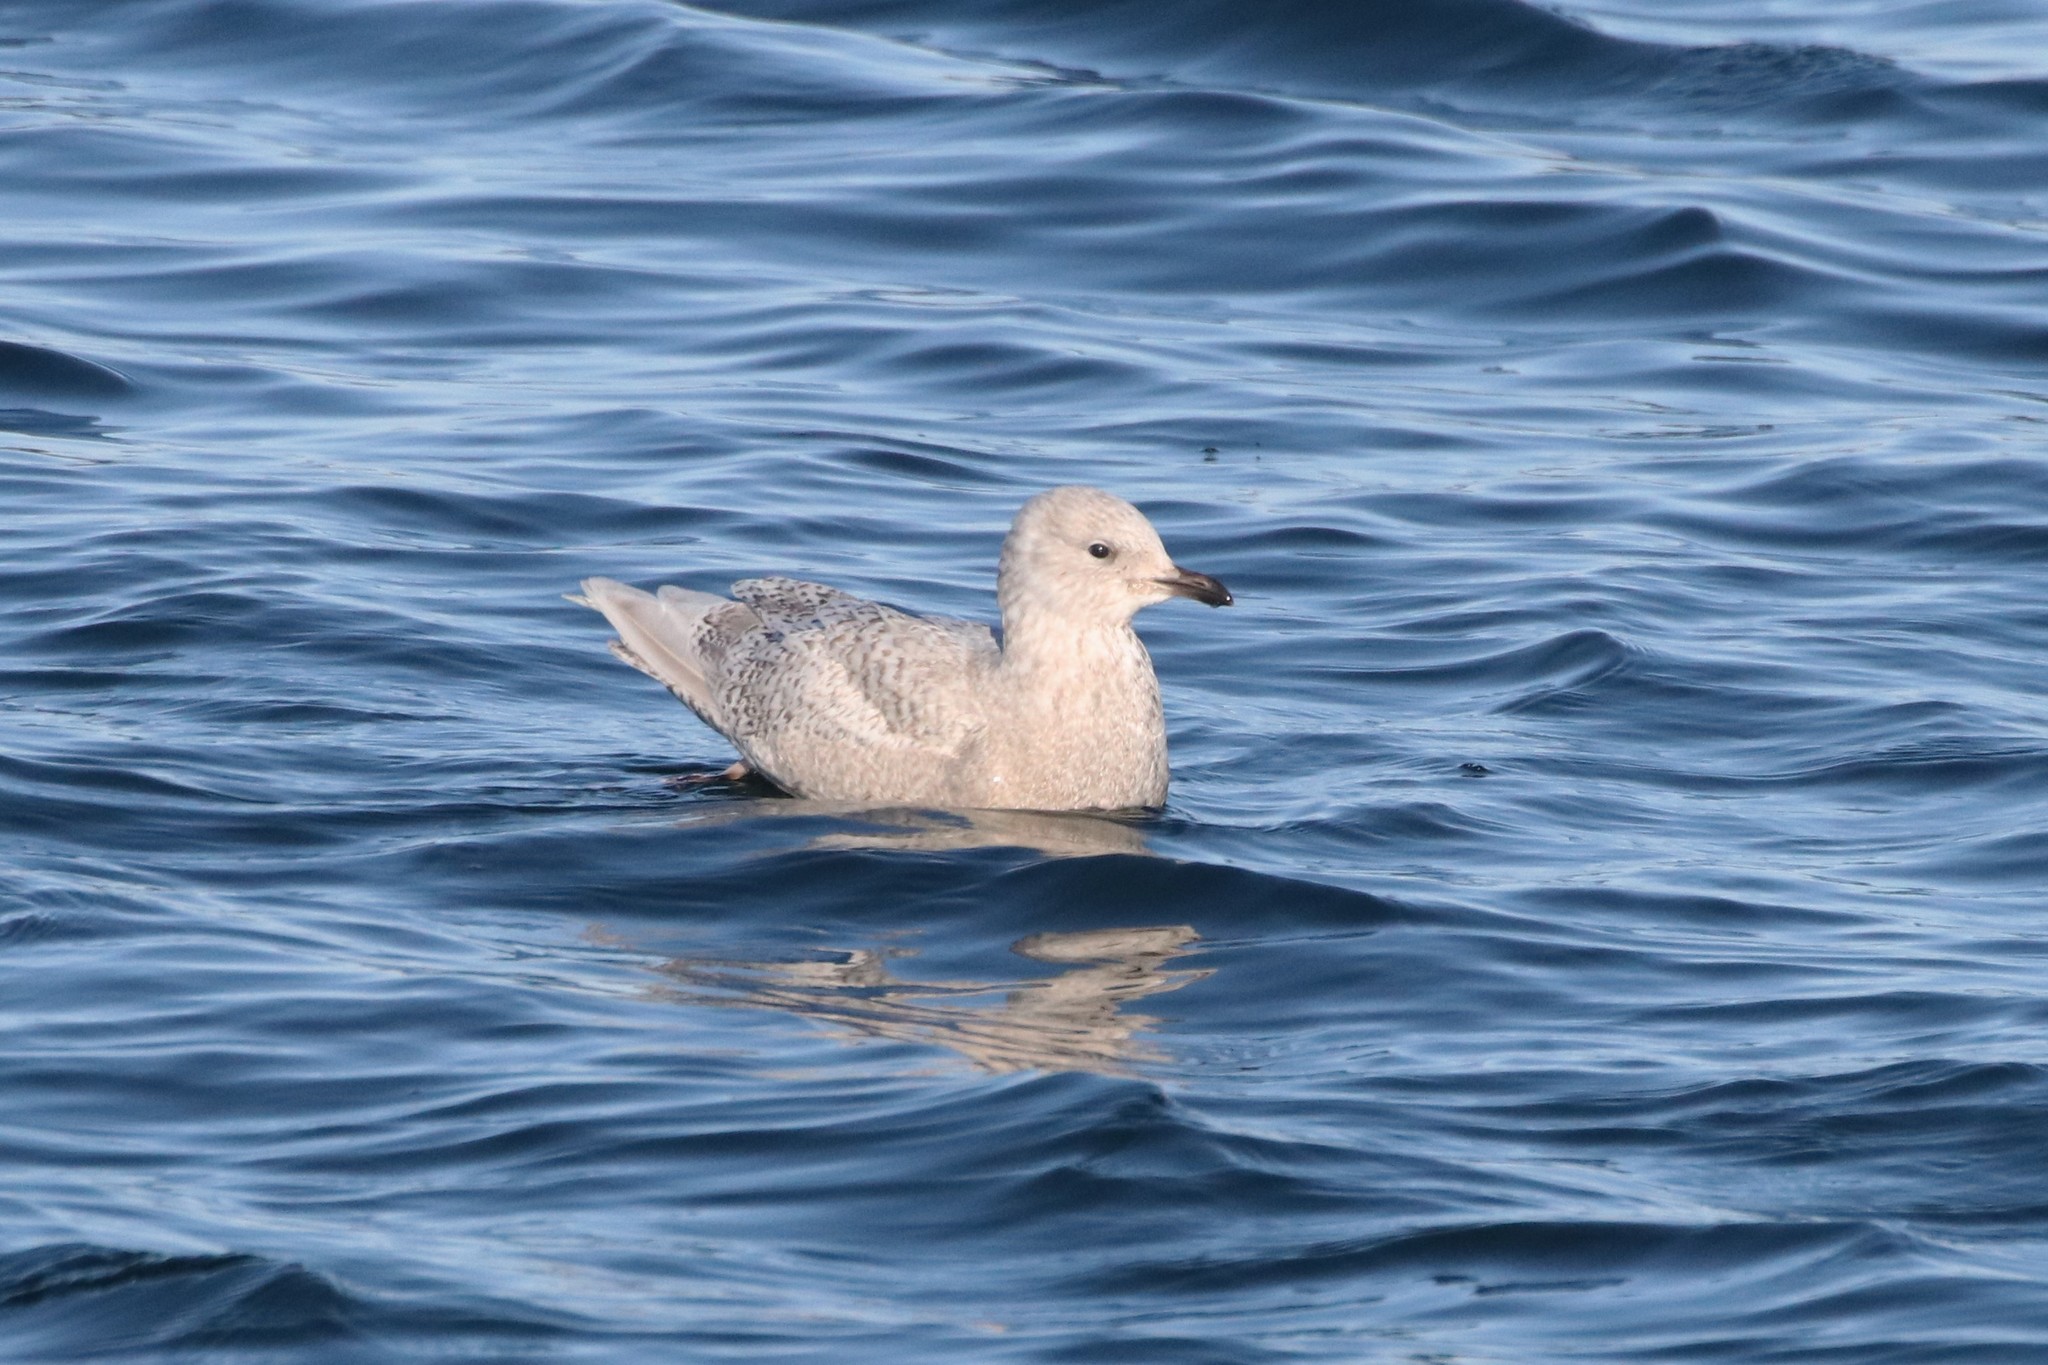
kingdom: Animalia
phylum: Chordata
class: Aves
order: Charadriiformes
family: Laridae
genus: Larus
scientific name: Larus glaucoides
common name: Iceland gull
